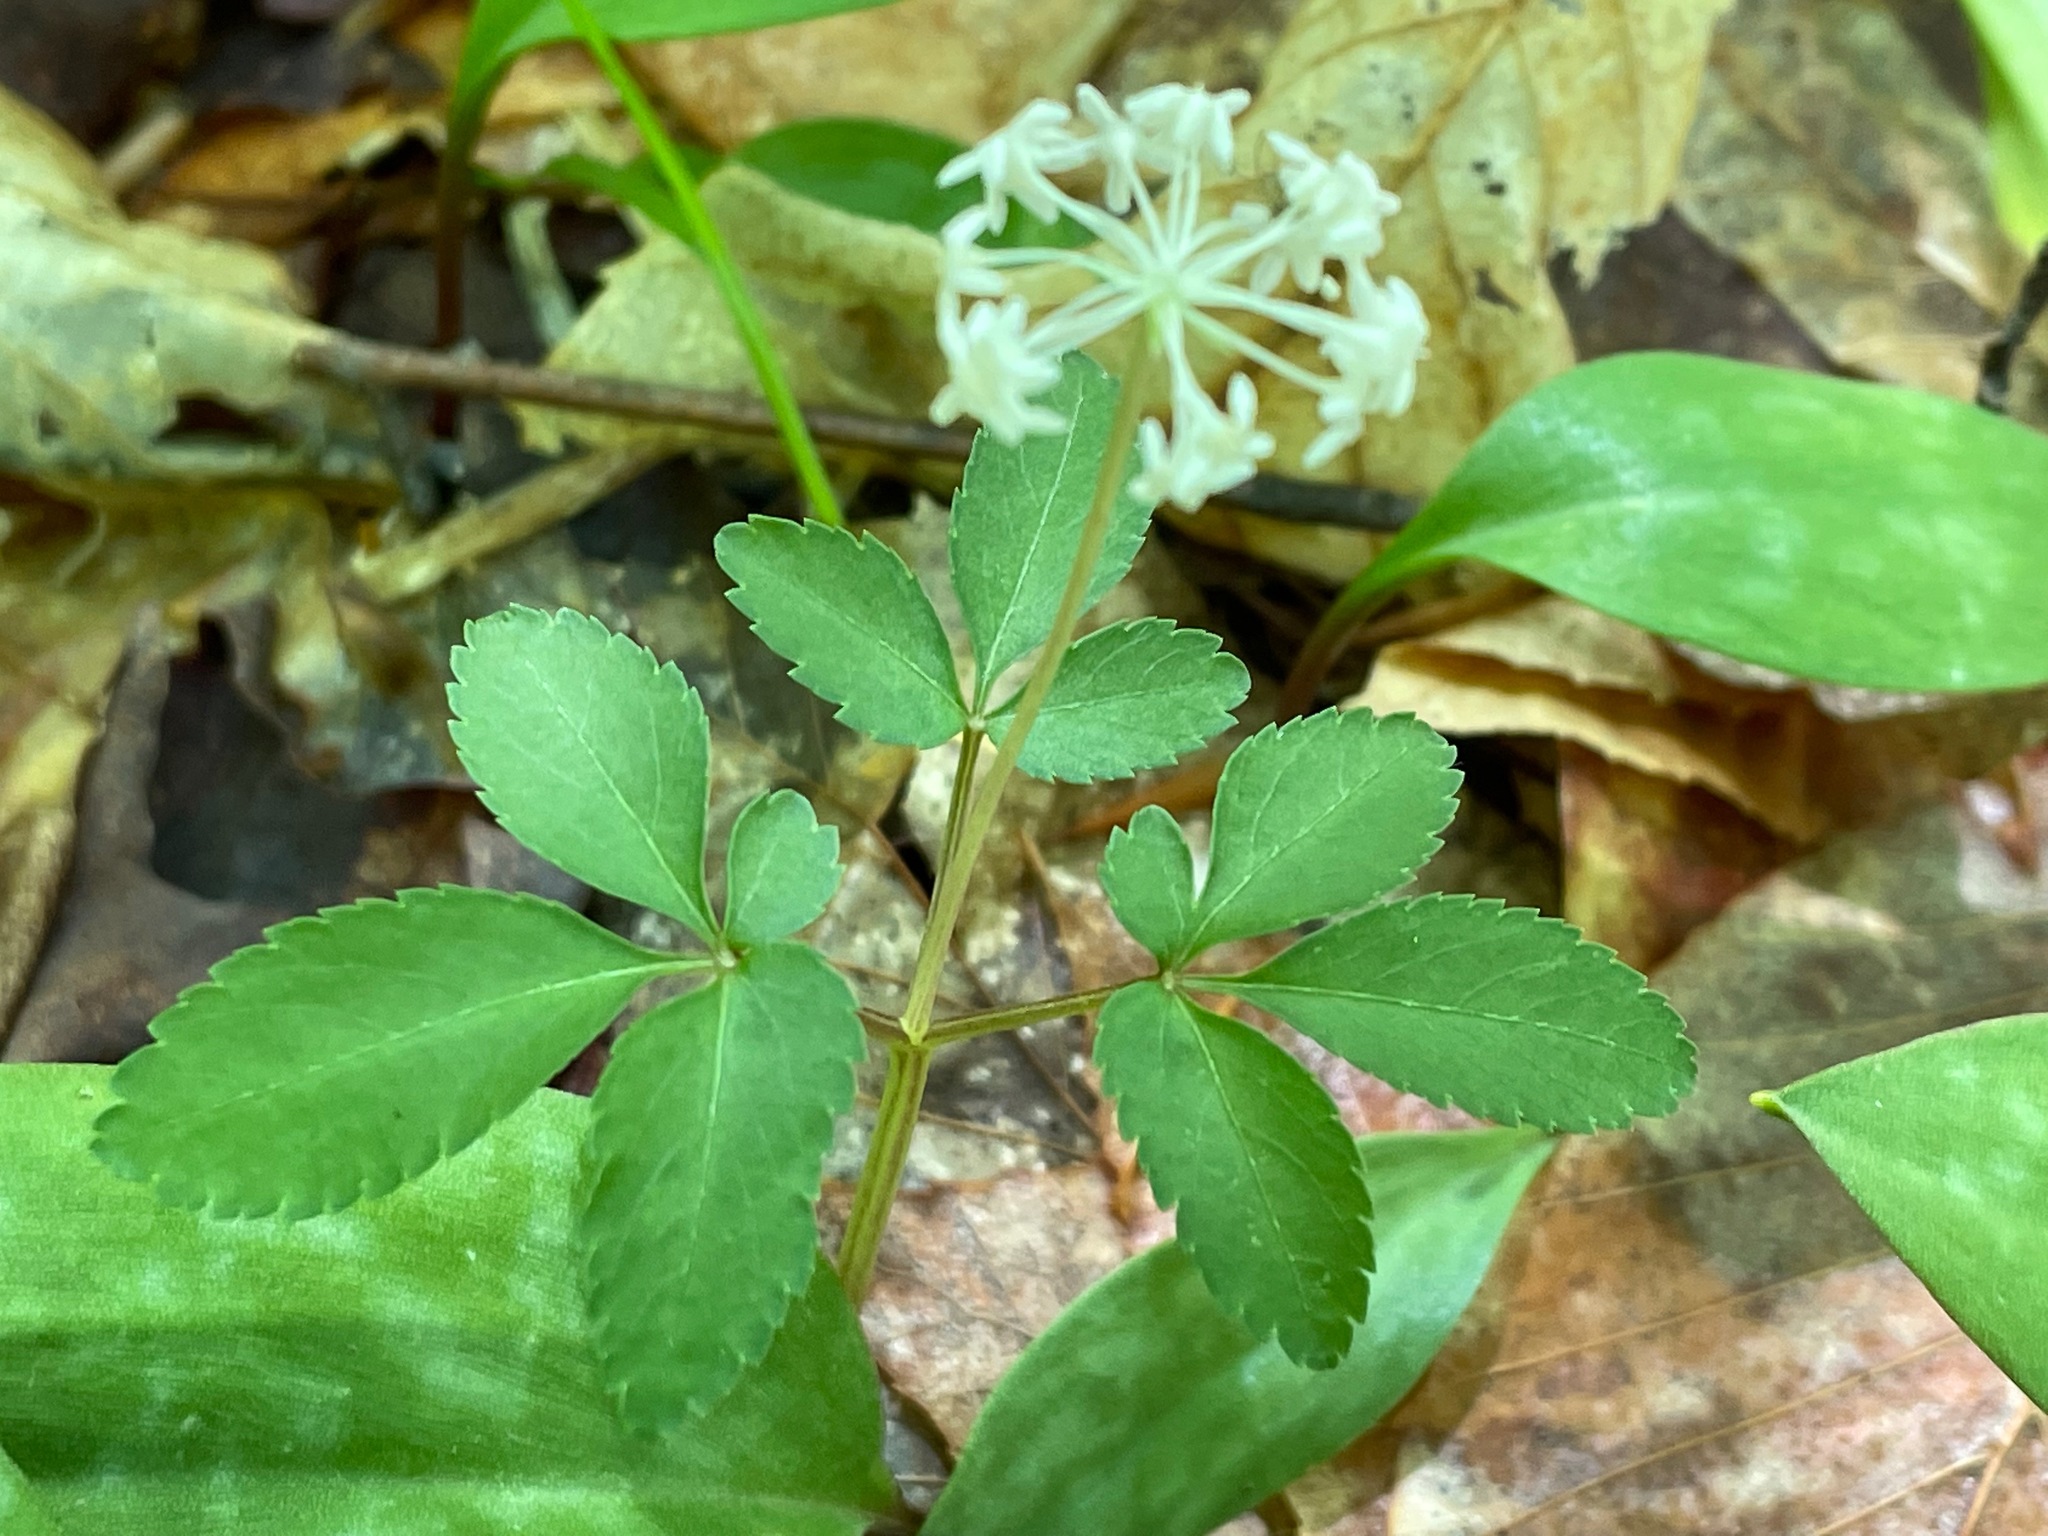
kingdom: Plantae
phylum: Tracheophyta
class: Magnoliopsida
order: Apiales
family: Araliaceae
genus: Panax
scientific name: Panax trifolius
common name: Dwarf ginseng
